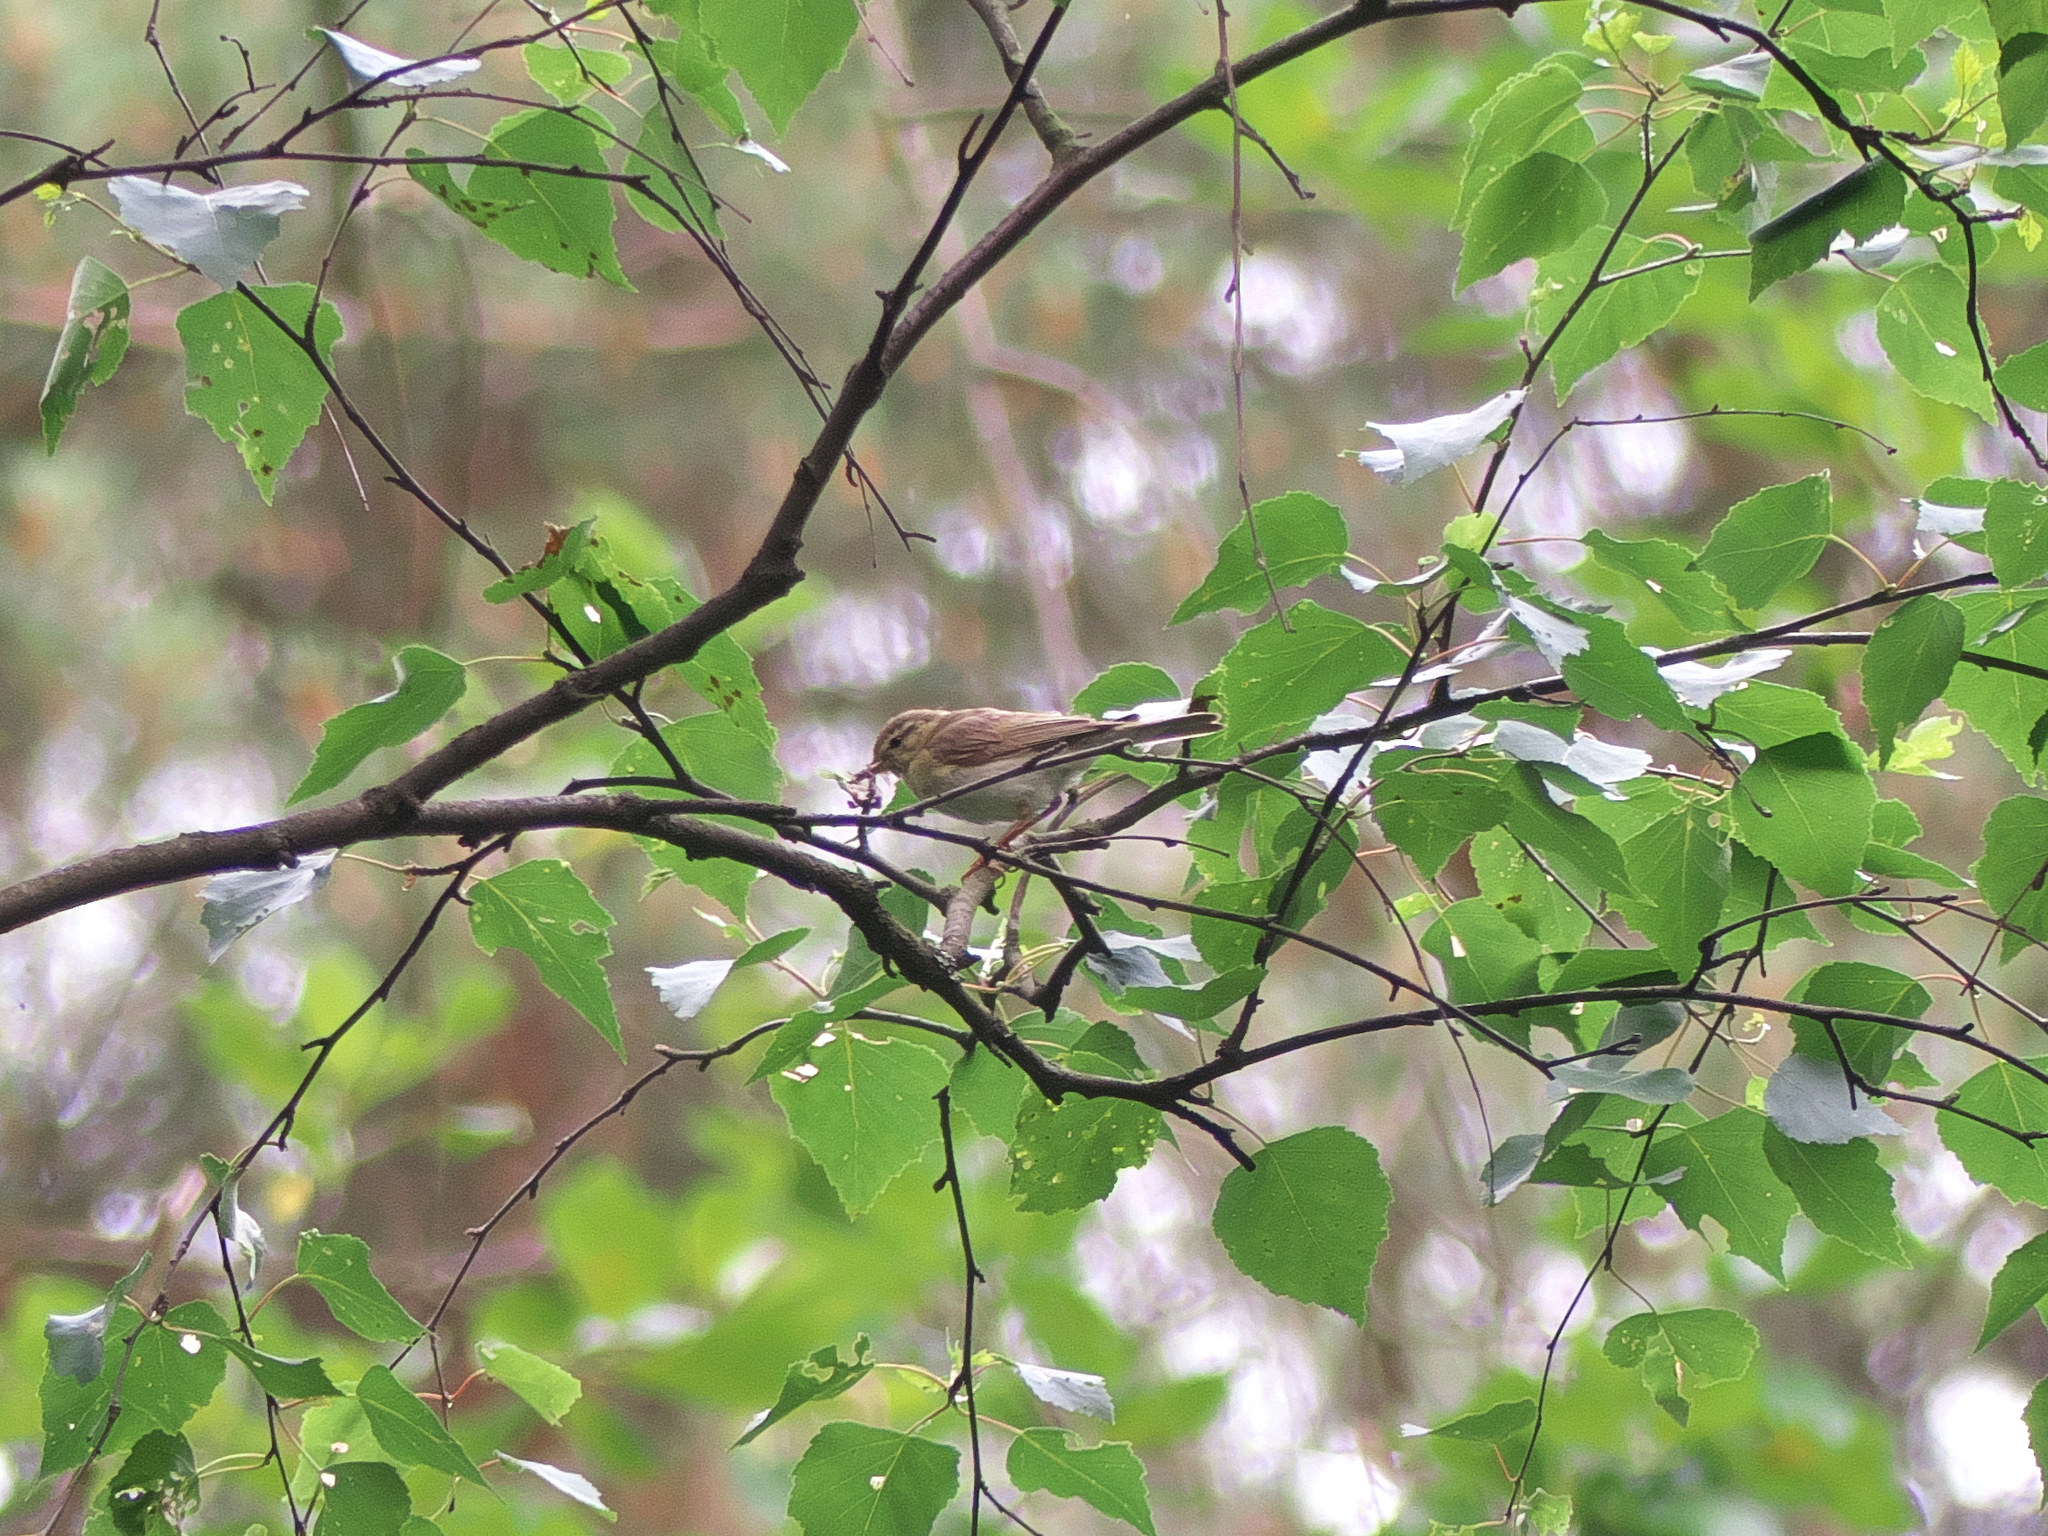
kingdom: Animalia
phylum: Chordata
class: Aves
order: Passeriformes
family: Phylloscopidae
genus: Phylloscopus
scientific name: Phylloscopus trochilus
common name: Willow warbler
